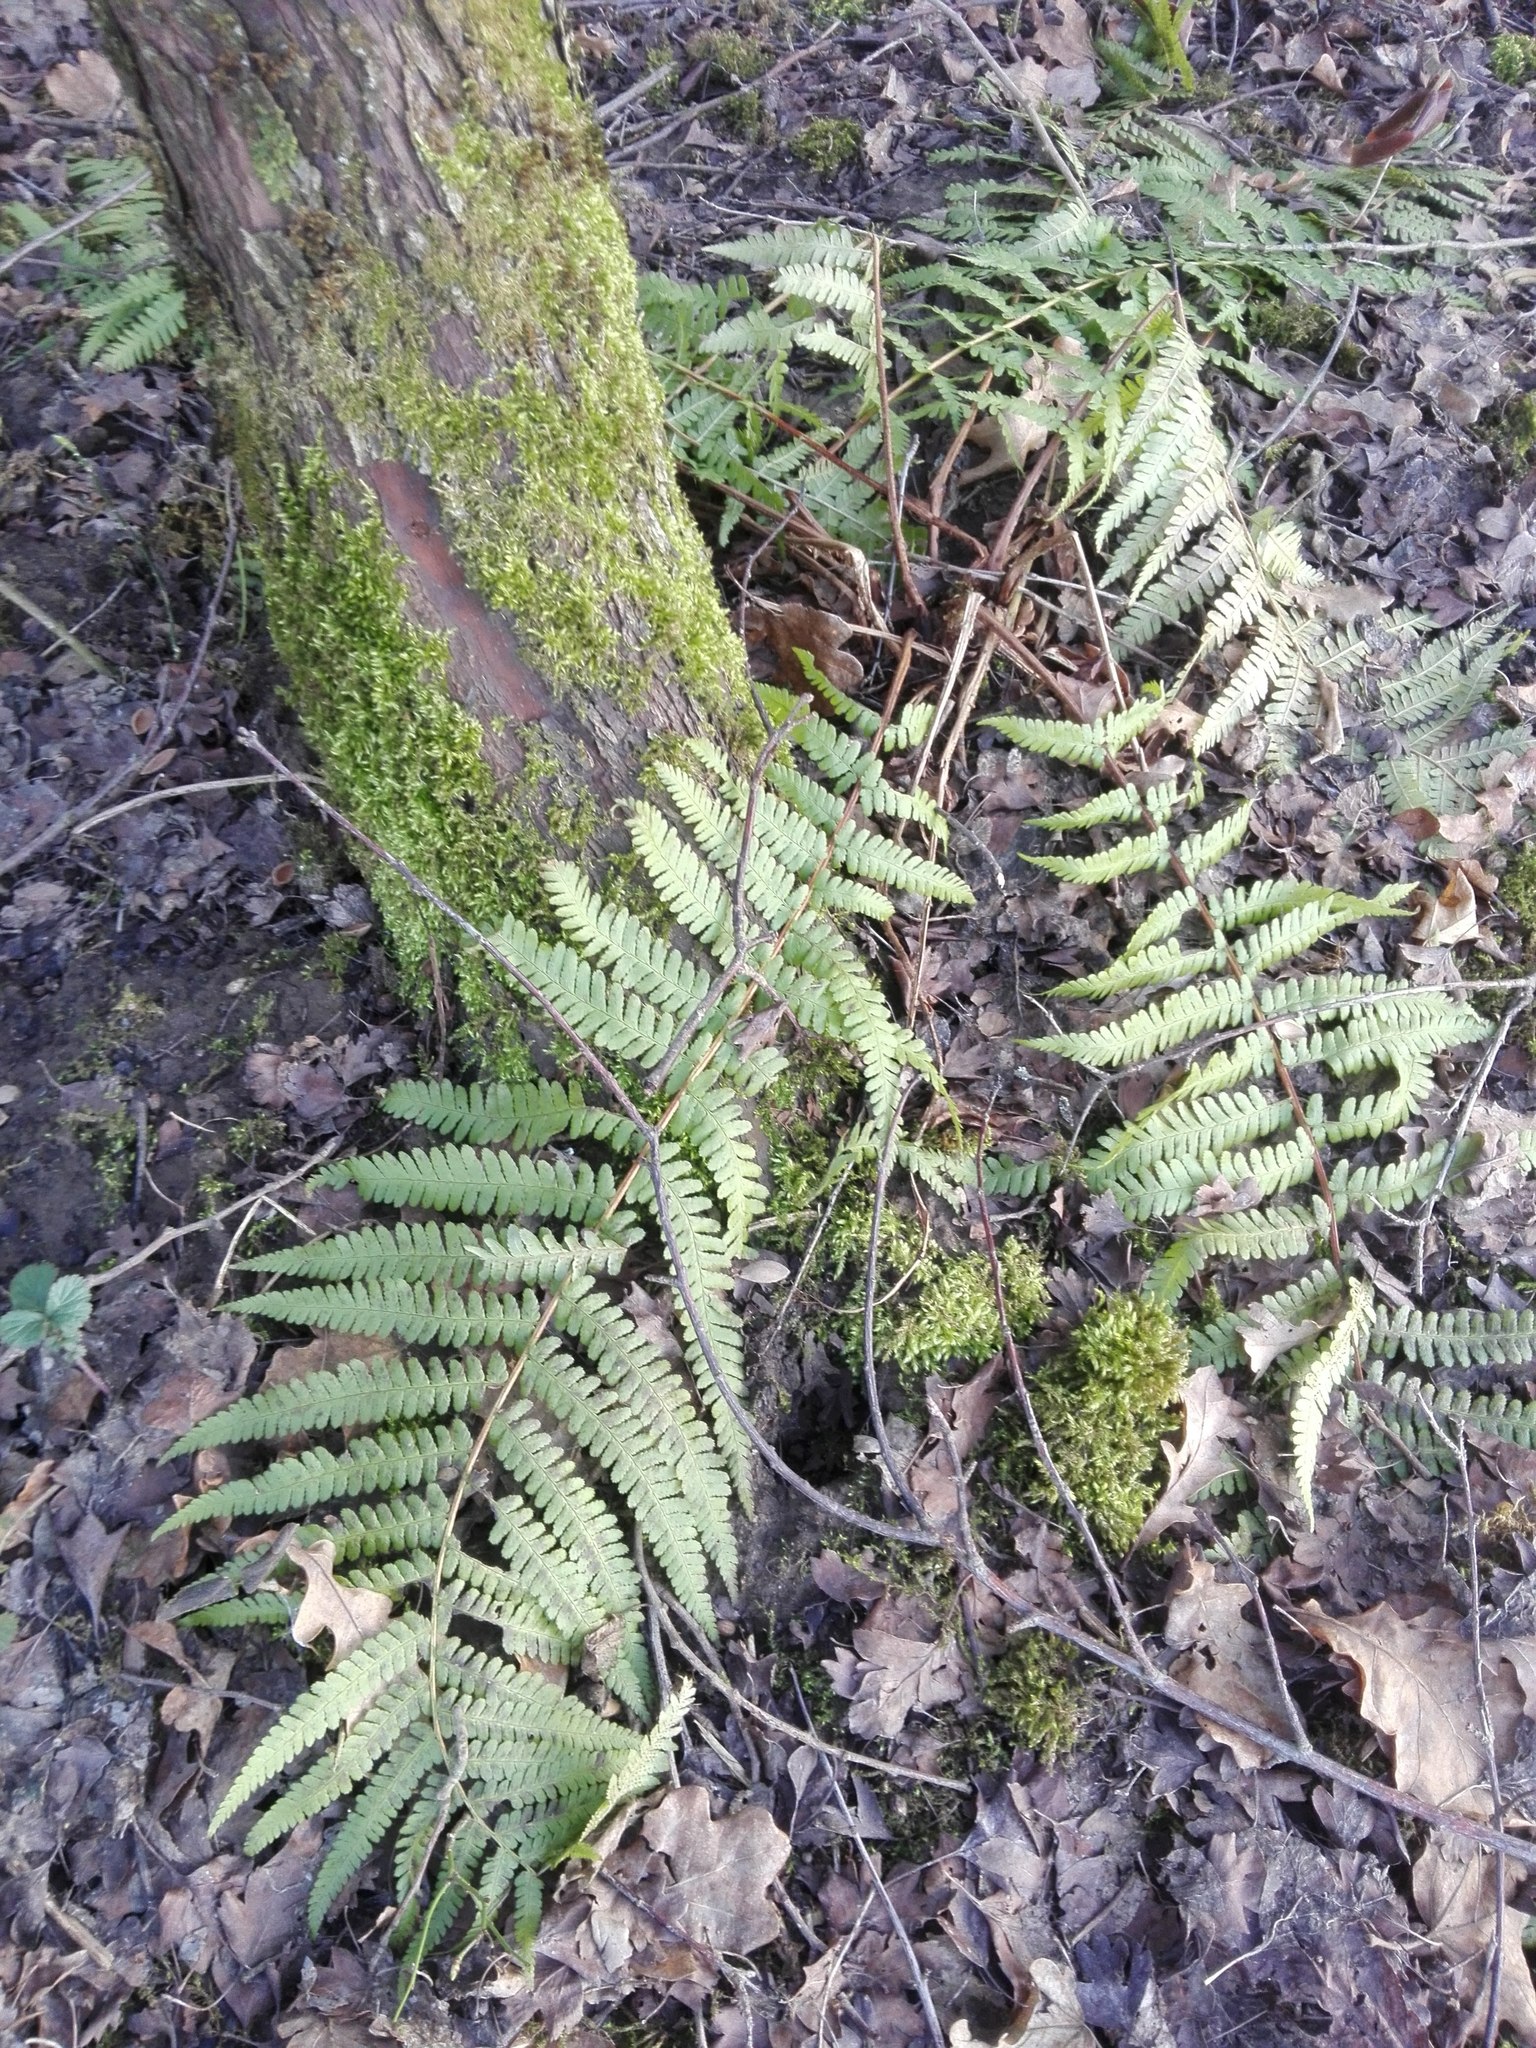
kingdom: Plantae
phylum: Tracheophyta
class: Polypodiopsida
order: Polypodiales
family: Dryopteridaceae
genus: Dryopteris
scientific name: Dryopteris filix-mas
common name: Male fern
